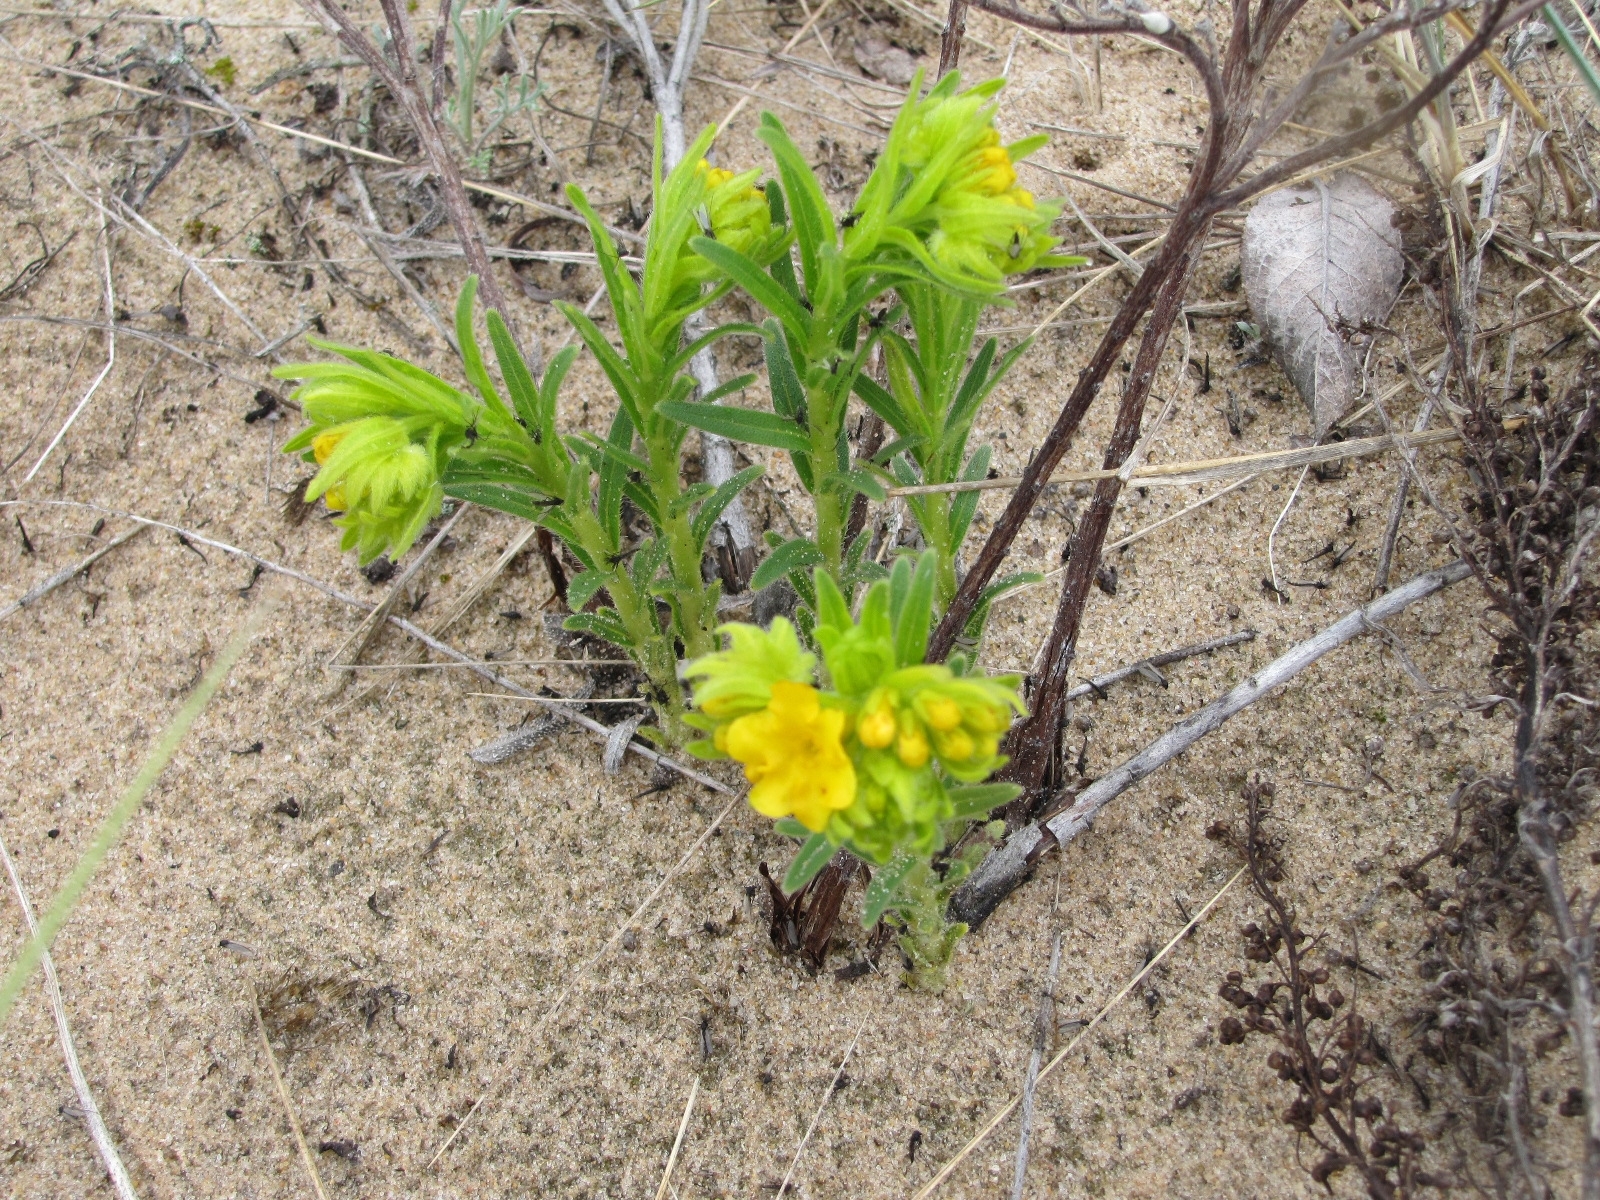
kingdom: Plantae
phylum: Tracheophyta
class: Magnoliopsida
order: Boraginales
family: Boraginaceae
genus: Lithospermum
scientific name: Lithospermum caroliniense
